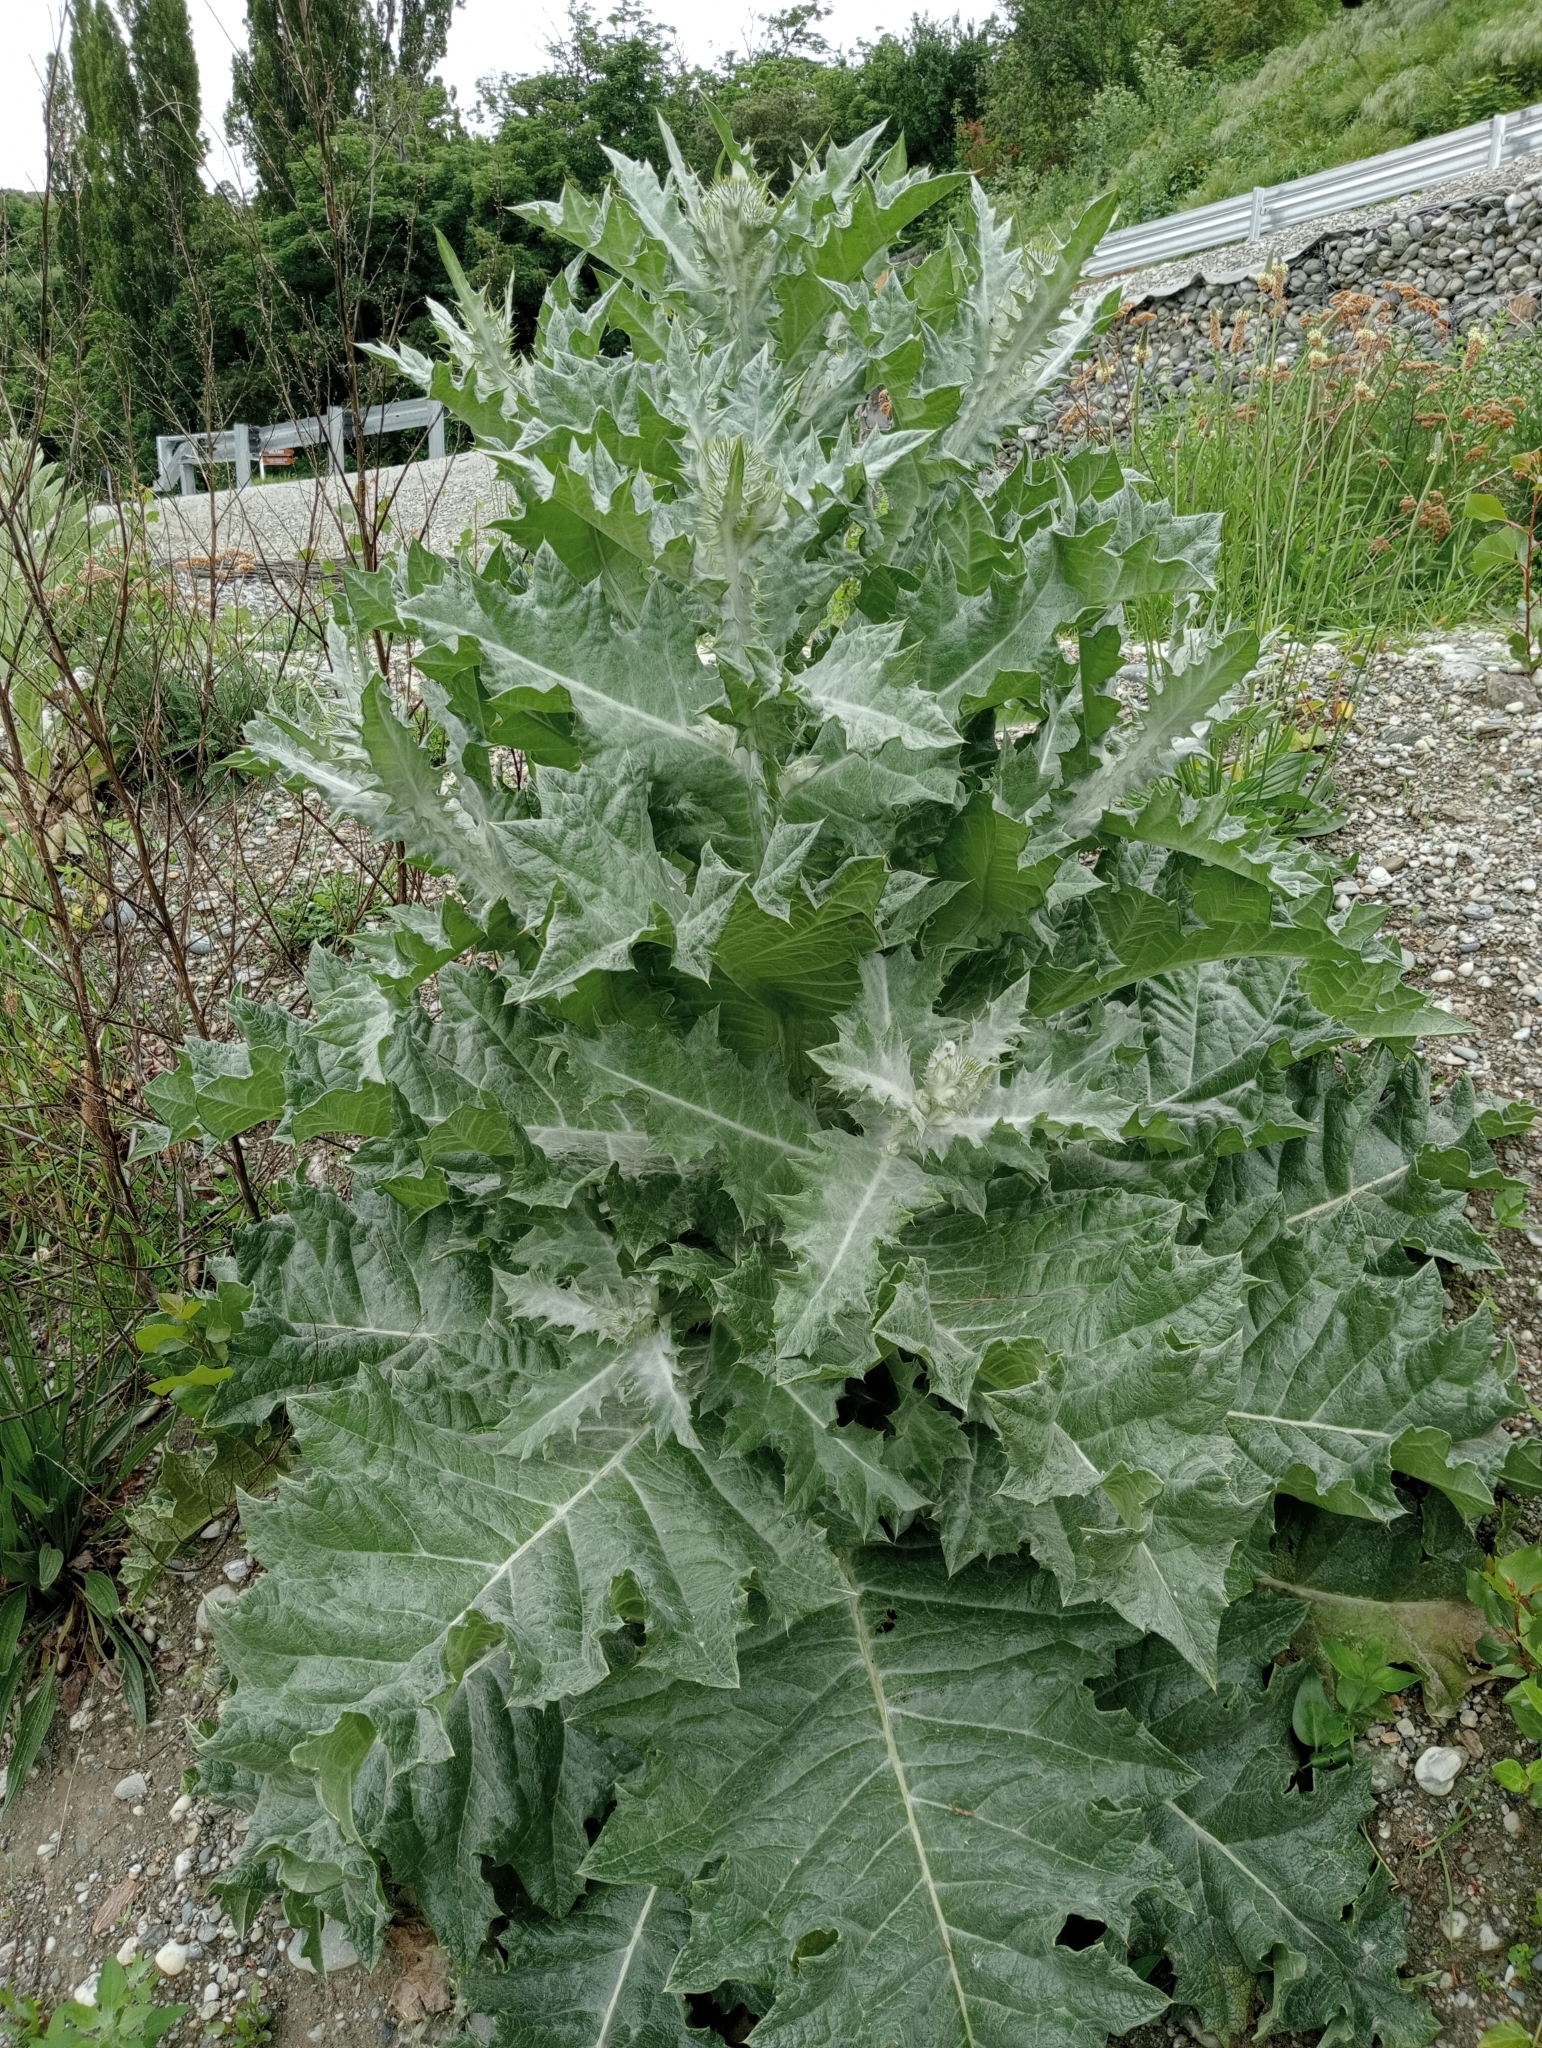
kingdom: Plantae
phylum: Tracheophyta
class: Magnoliopsida
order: Asterales
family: Asteraceae
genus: Onopordum
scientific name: Onopordum acanthium
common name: Scotch thistle
